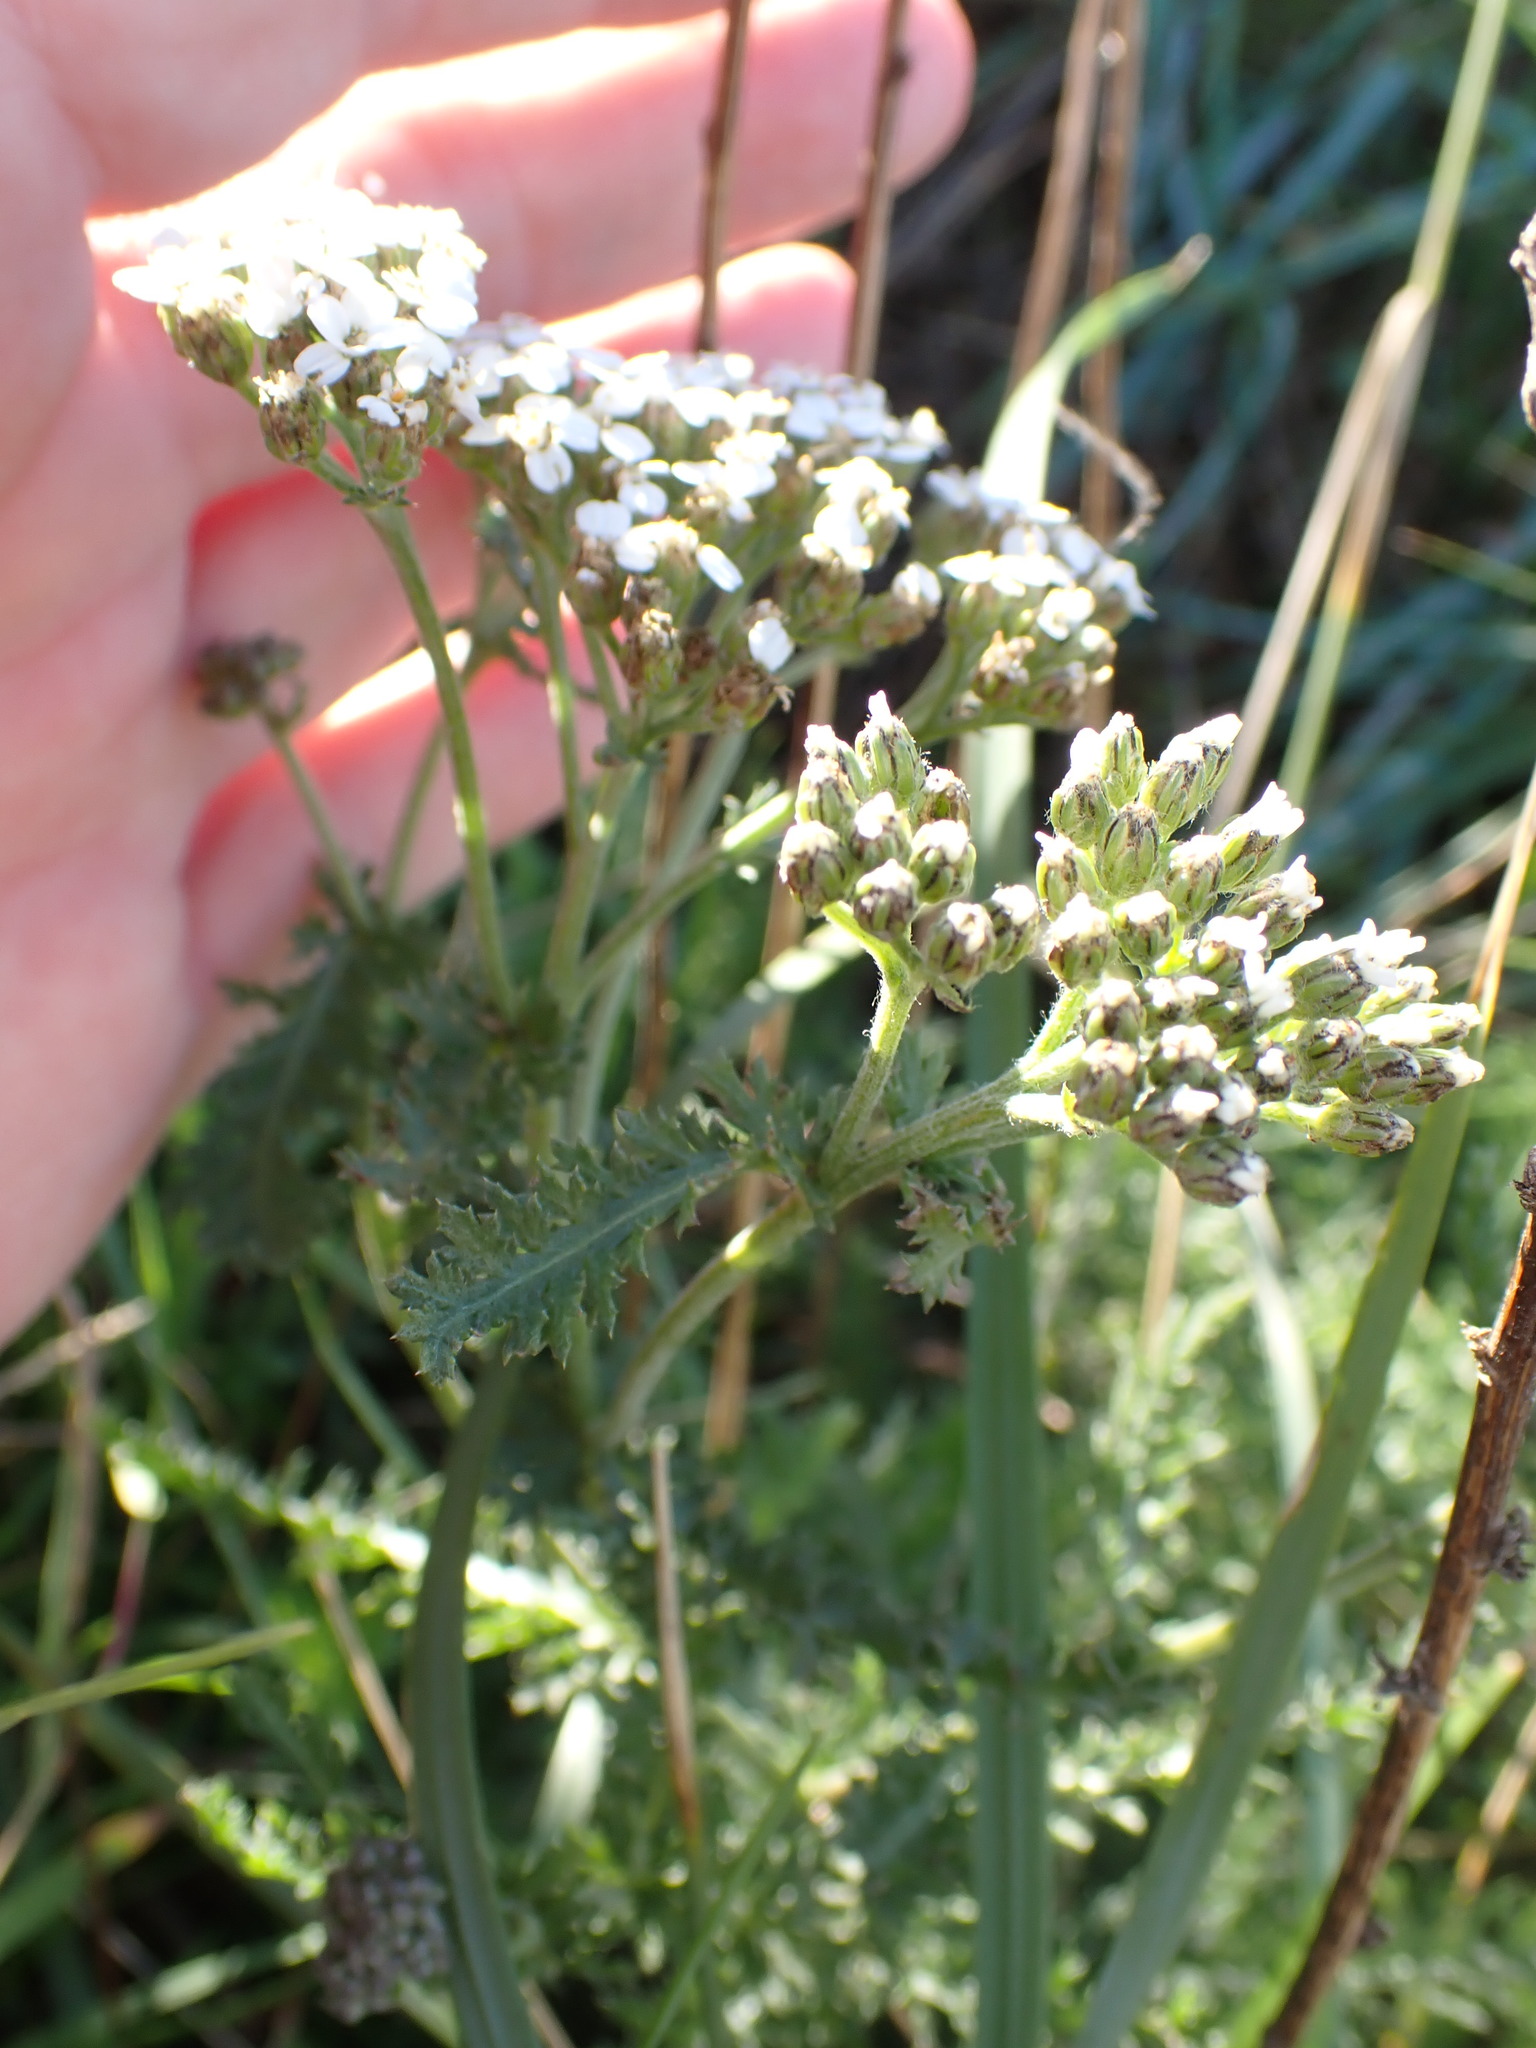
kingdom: Plantae
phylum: Tracheophyta
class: Magnoliopsida
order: Asterales
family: Asteraceae
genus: Achillea
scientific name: Achillea millefolium
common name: Yarrow
